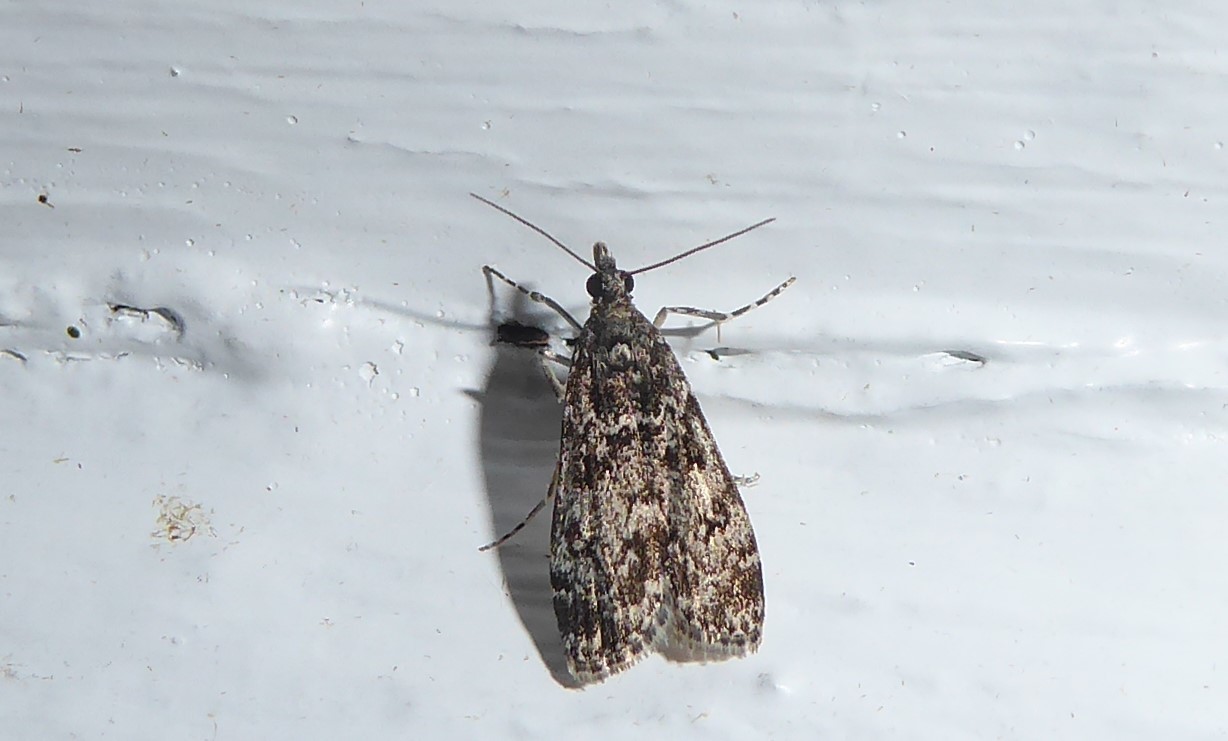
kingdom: Animalia
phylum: Arthropoda
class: Insecta
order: Lepidoptera
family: Crambidae
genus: Eudonia
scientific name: Eudonia philerga
